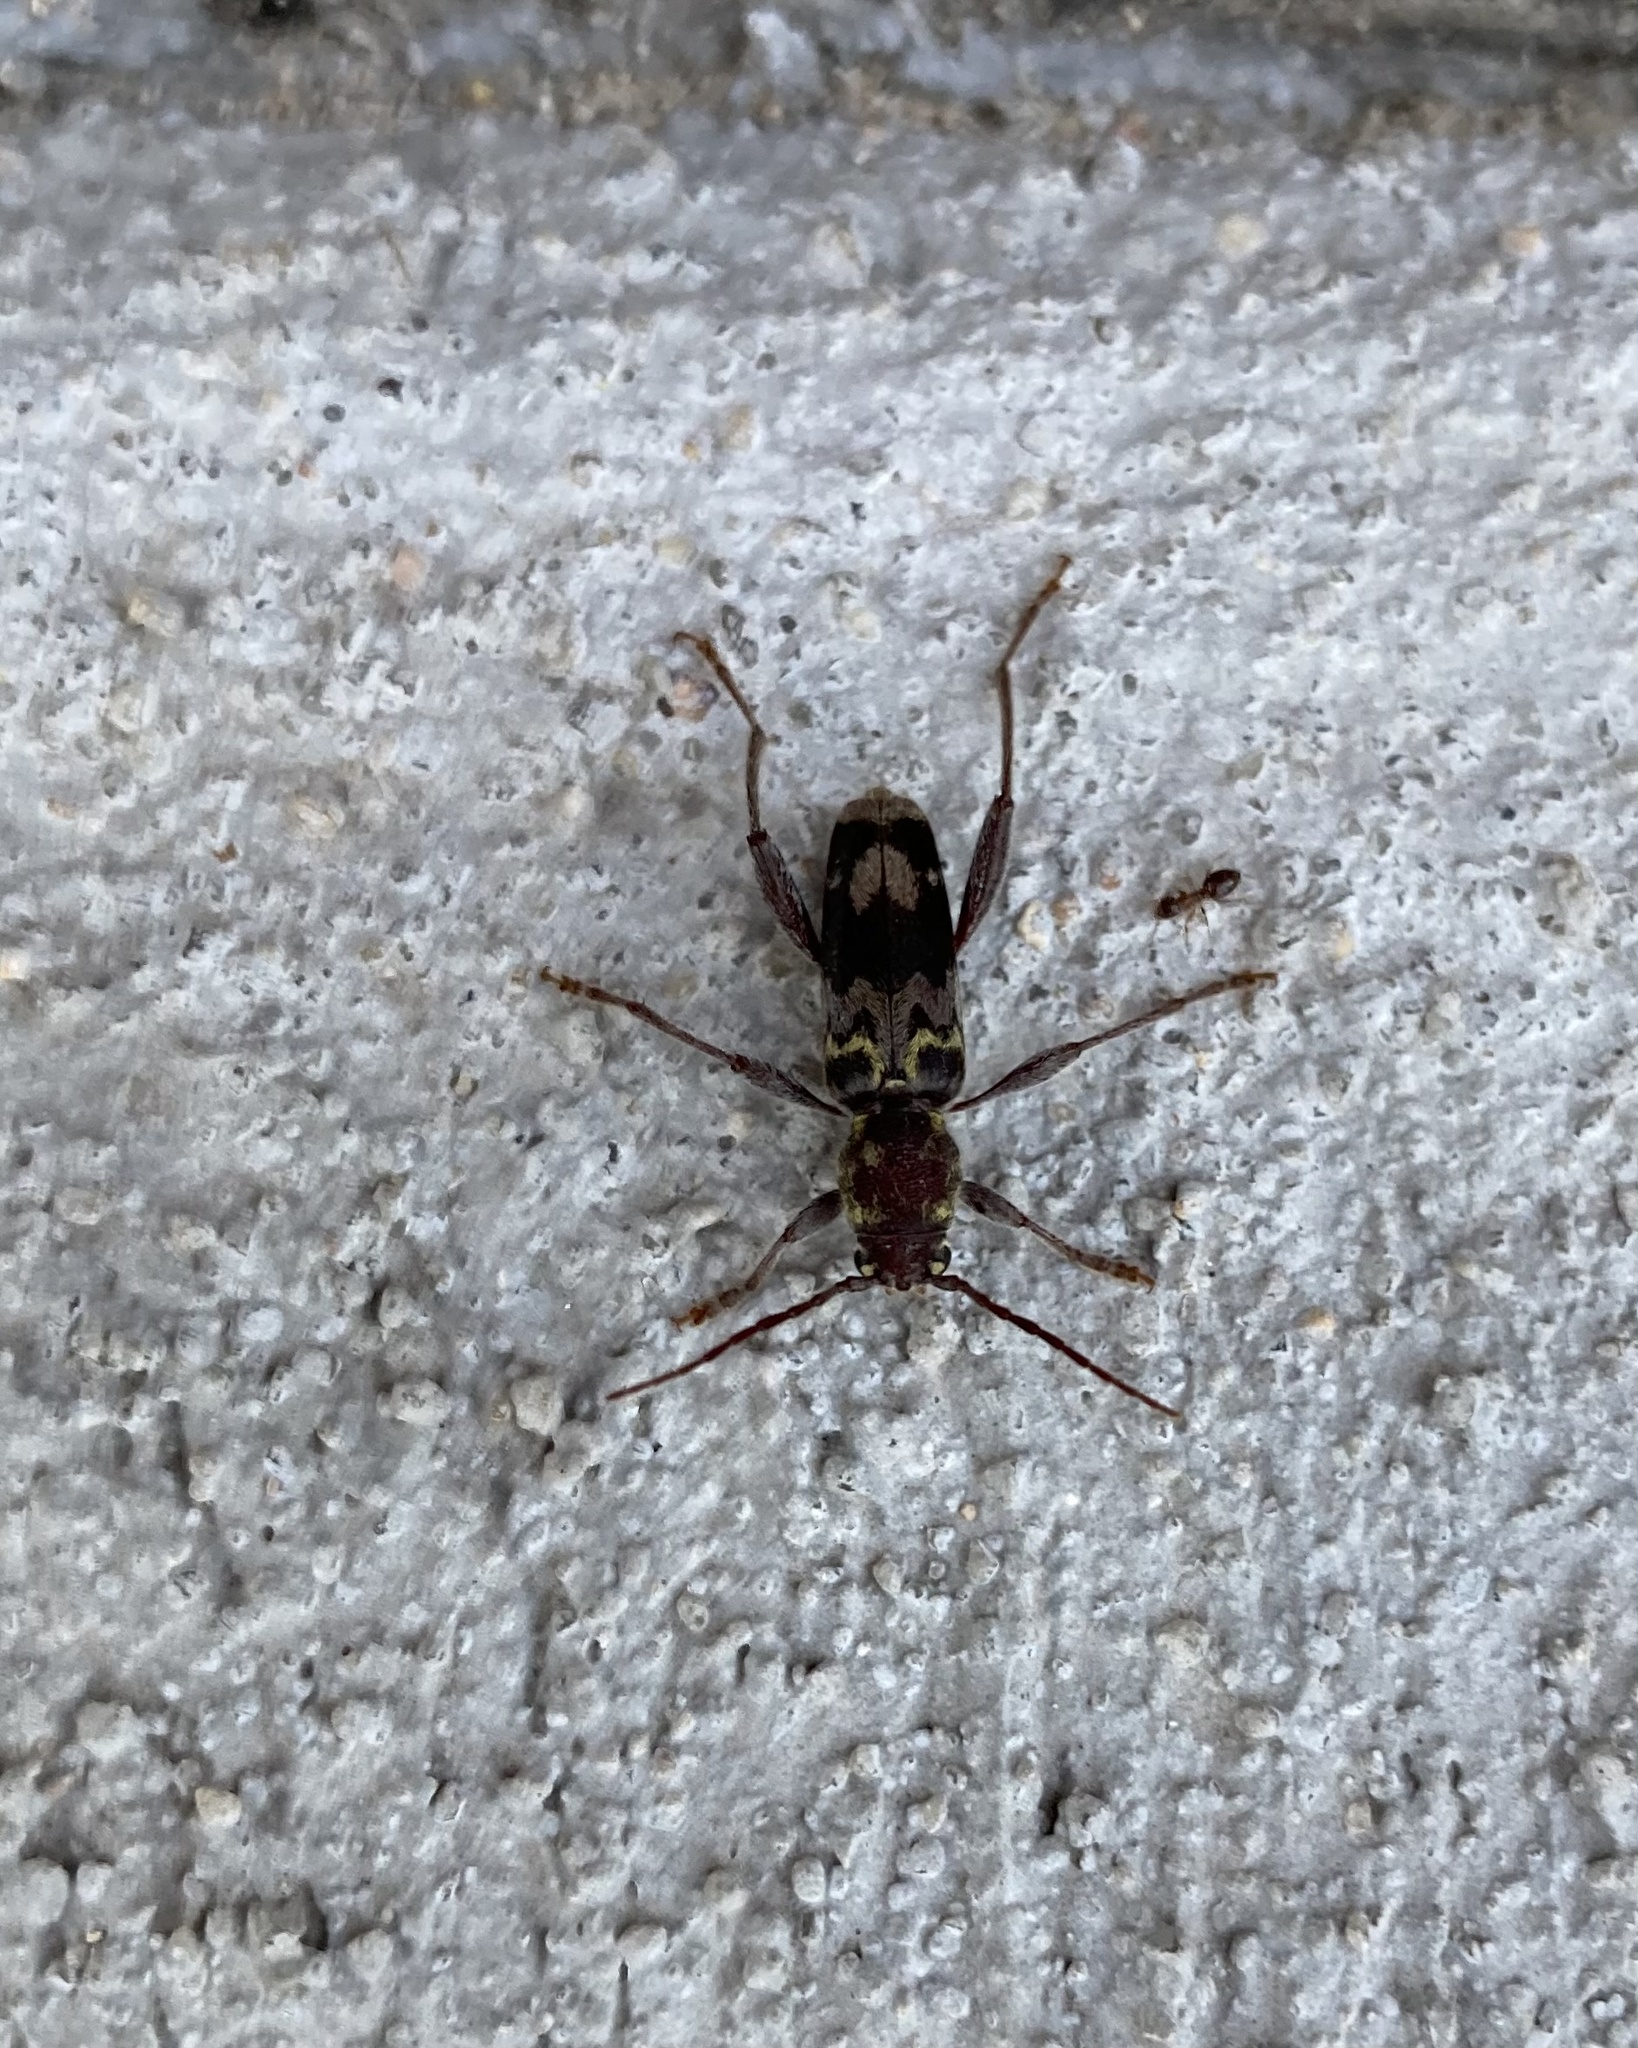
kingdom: Animalia
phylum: Arthropoda
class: Insecta
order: Coleoptera
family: Cerambycidae
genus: Xylotrechus
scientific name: Xylotrechus colonus
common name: Long-horned beetle
